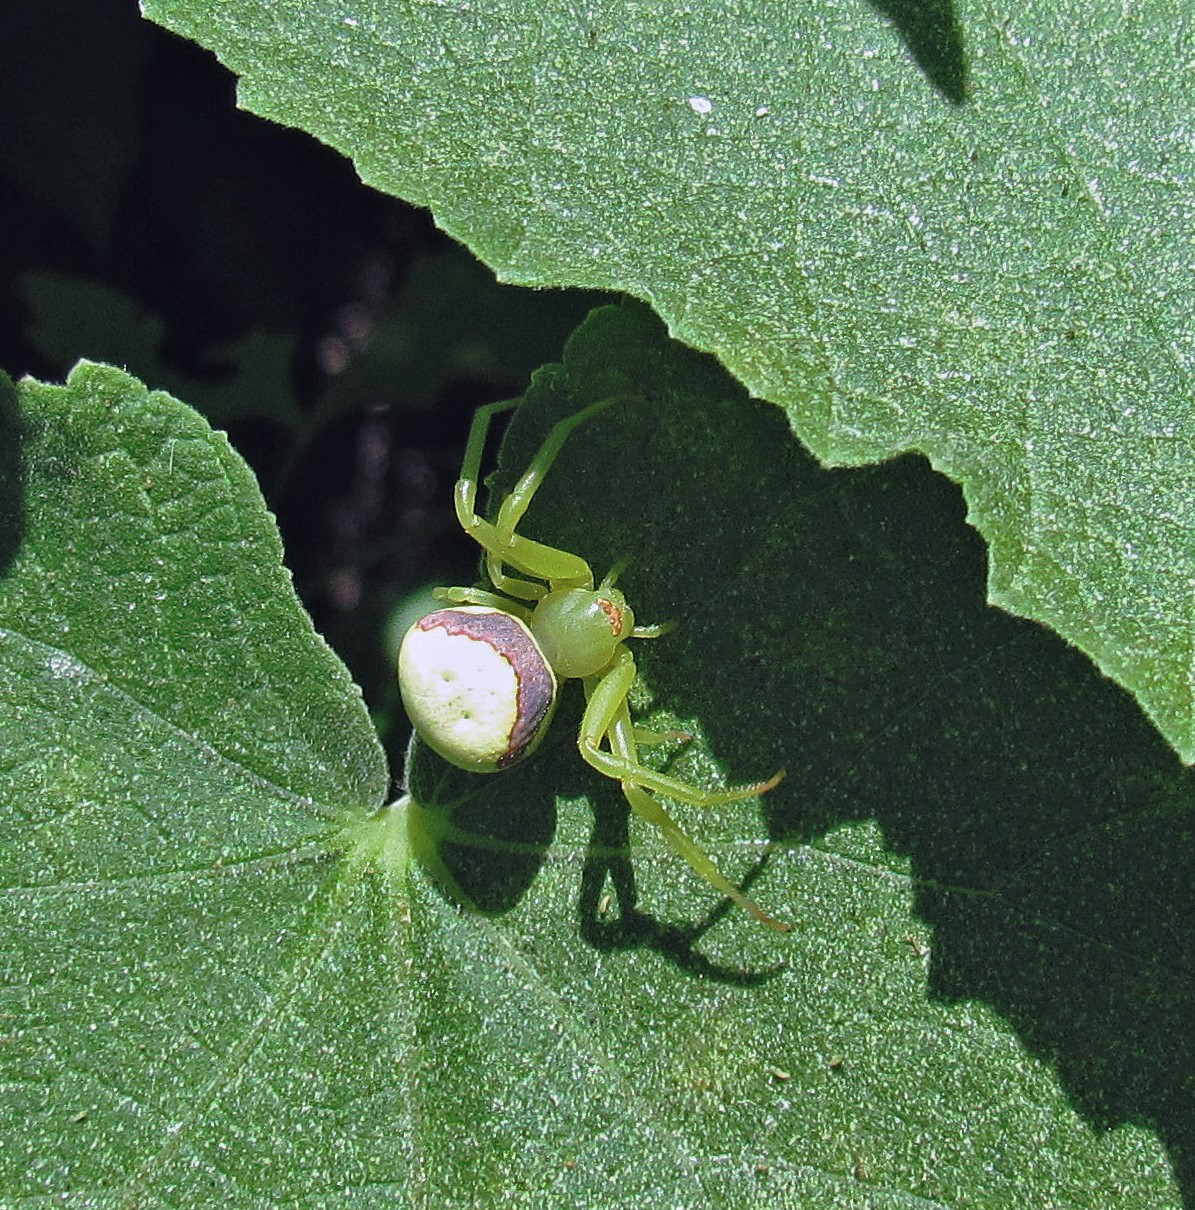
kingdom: Animalia
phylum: Arthropoda
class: Arachnida
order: Araneae
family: Thomisidae
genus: Misumenops
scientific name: Misumenops callinurus
